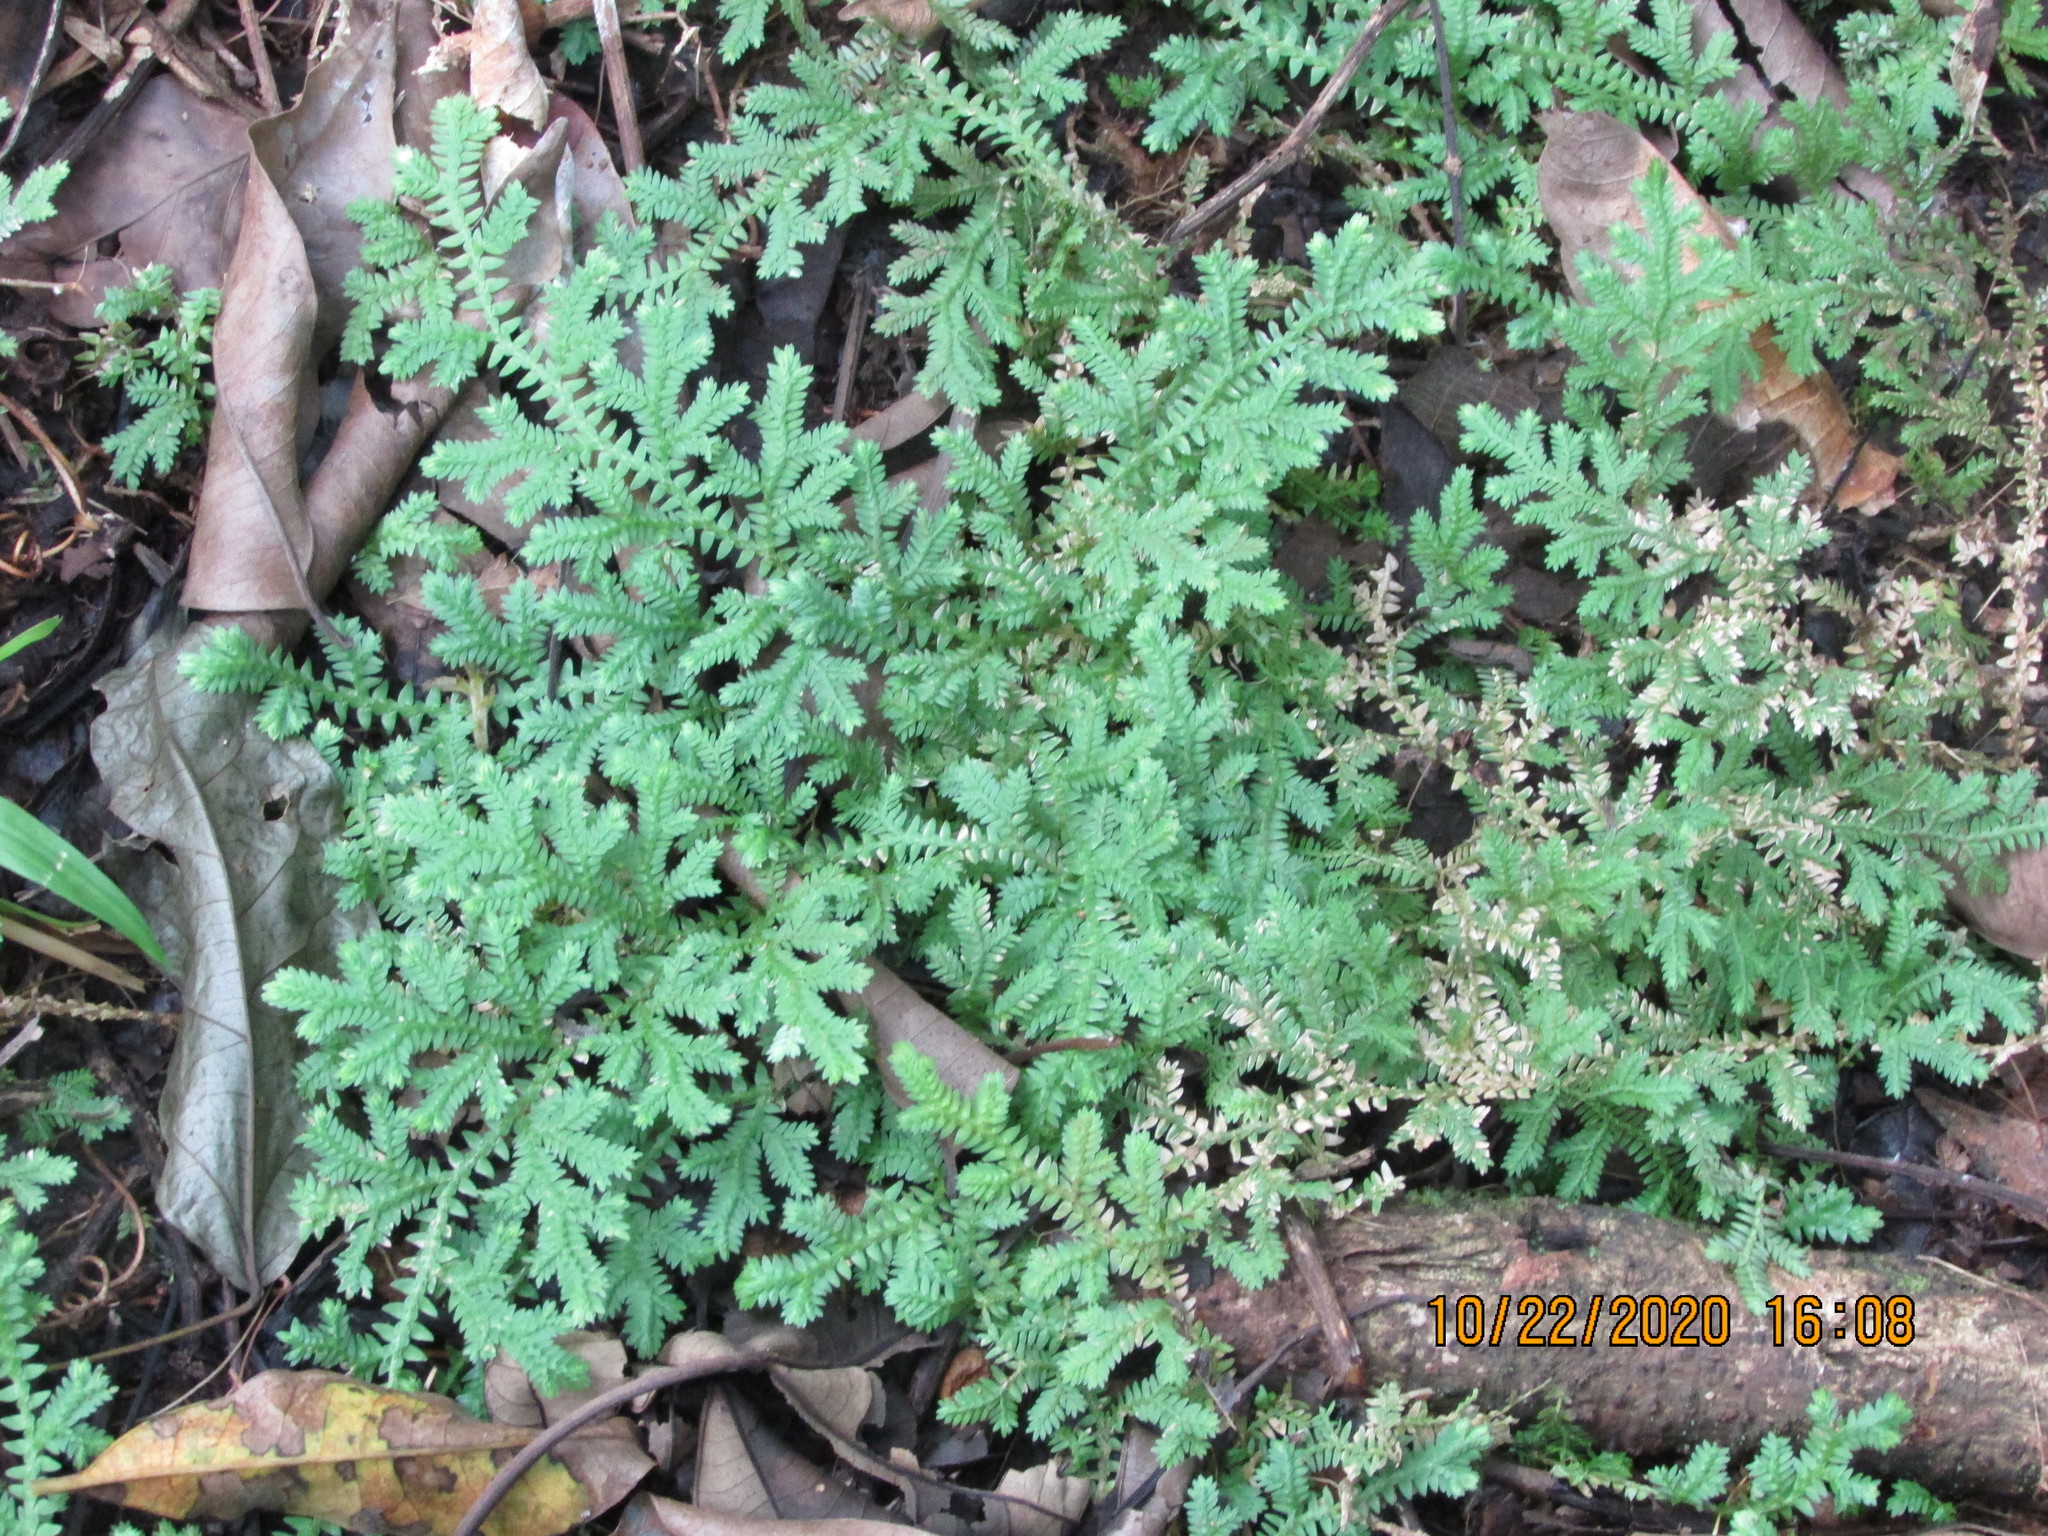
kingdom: Plantae
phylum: Tracheophyta
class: Lycopodiopsida
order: Selaginellales
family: Selaginellaceae
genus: Selaginella
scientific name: Selaginella kraussiana
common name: Krauss' spikemoss
